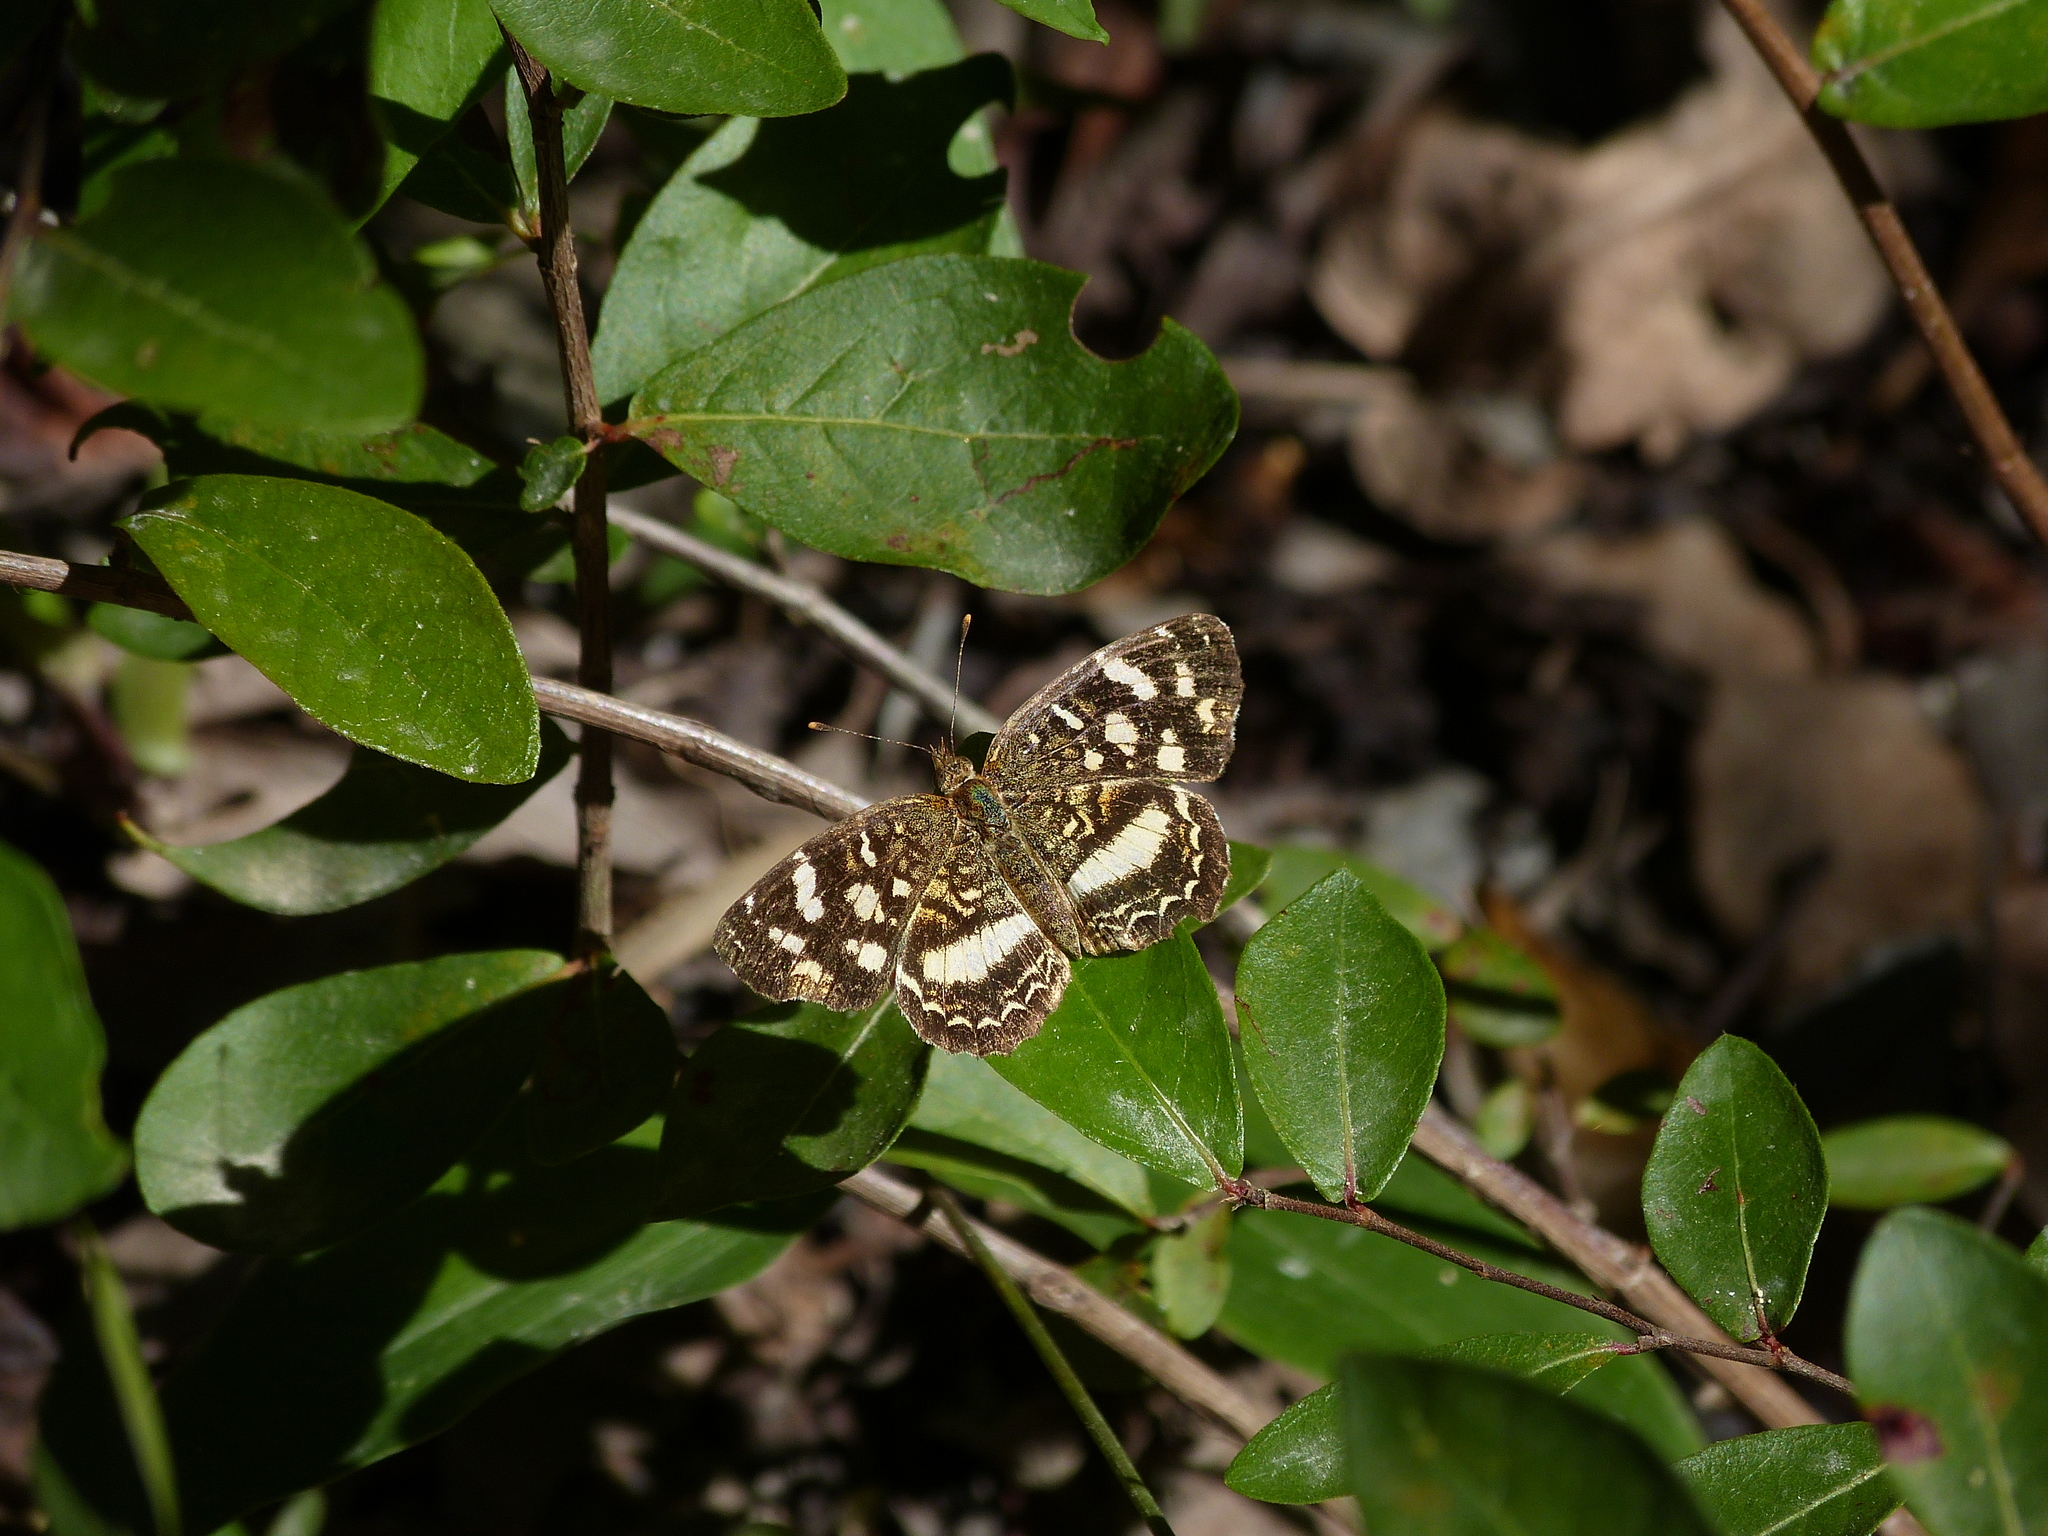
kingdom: Animalia
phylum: Arthropoda
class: Insecta
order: Lepidoptera
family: Nymphalidae
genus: Anthanassa
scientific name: Anthanassa tulcis
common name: Pale-banded crescent
